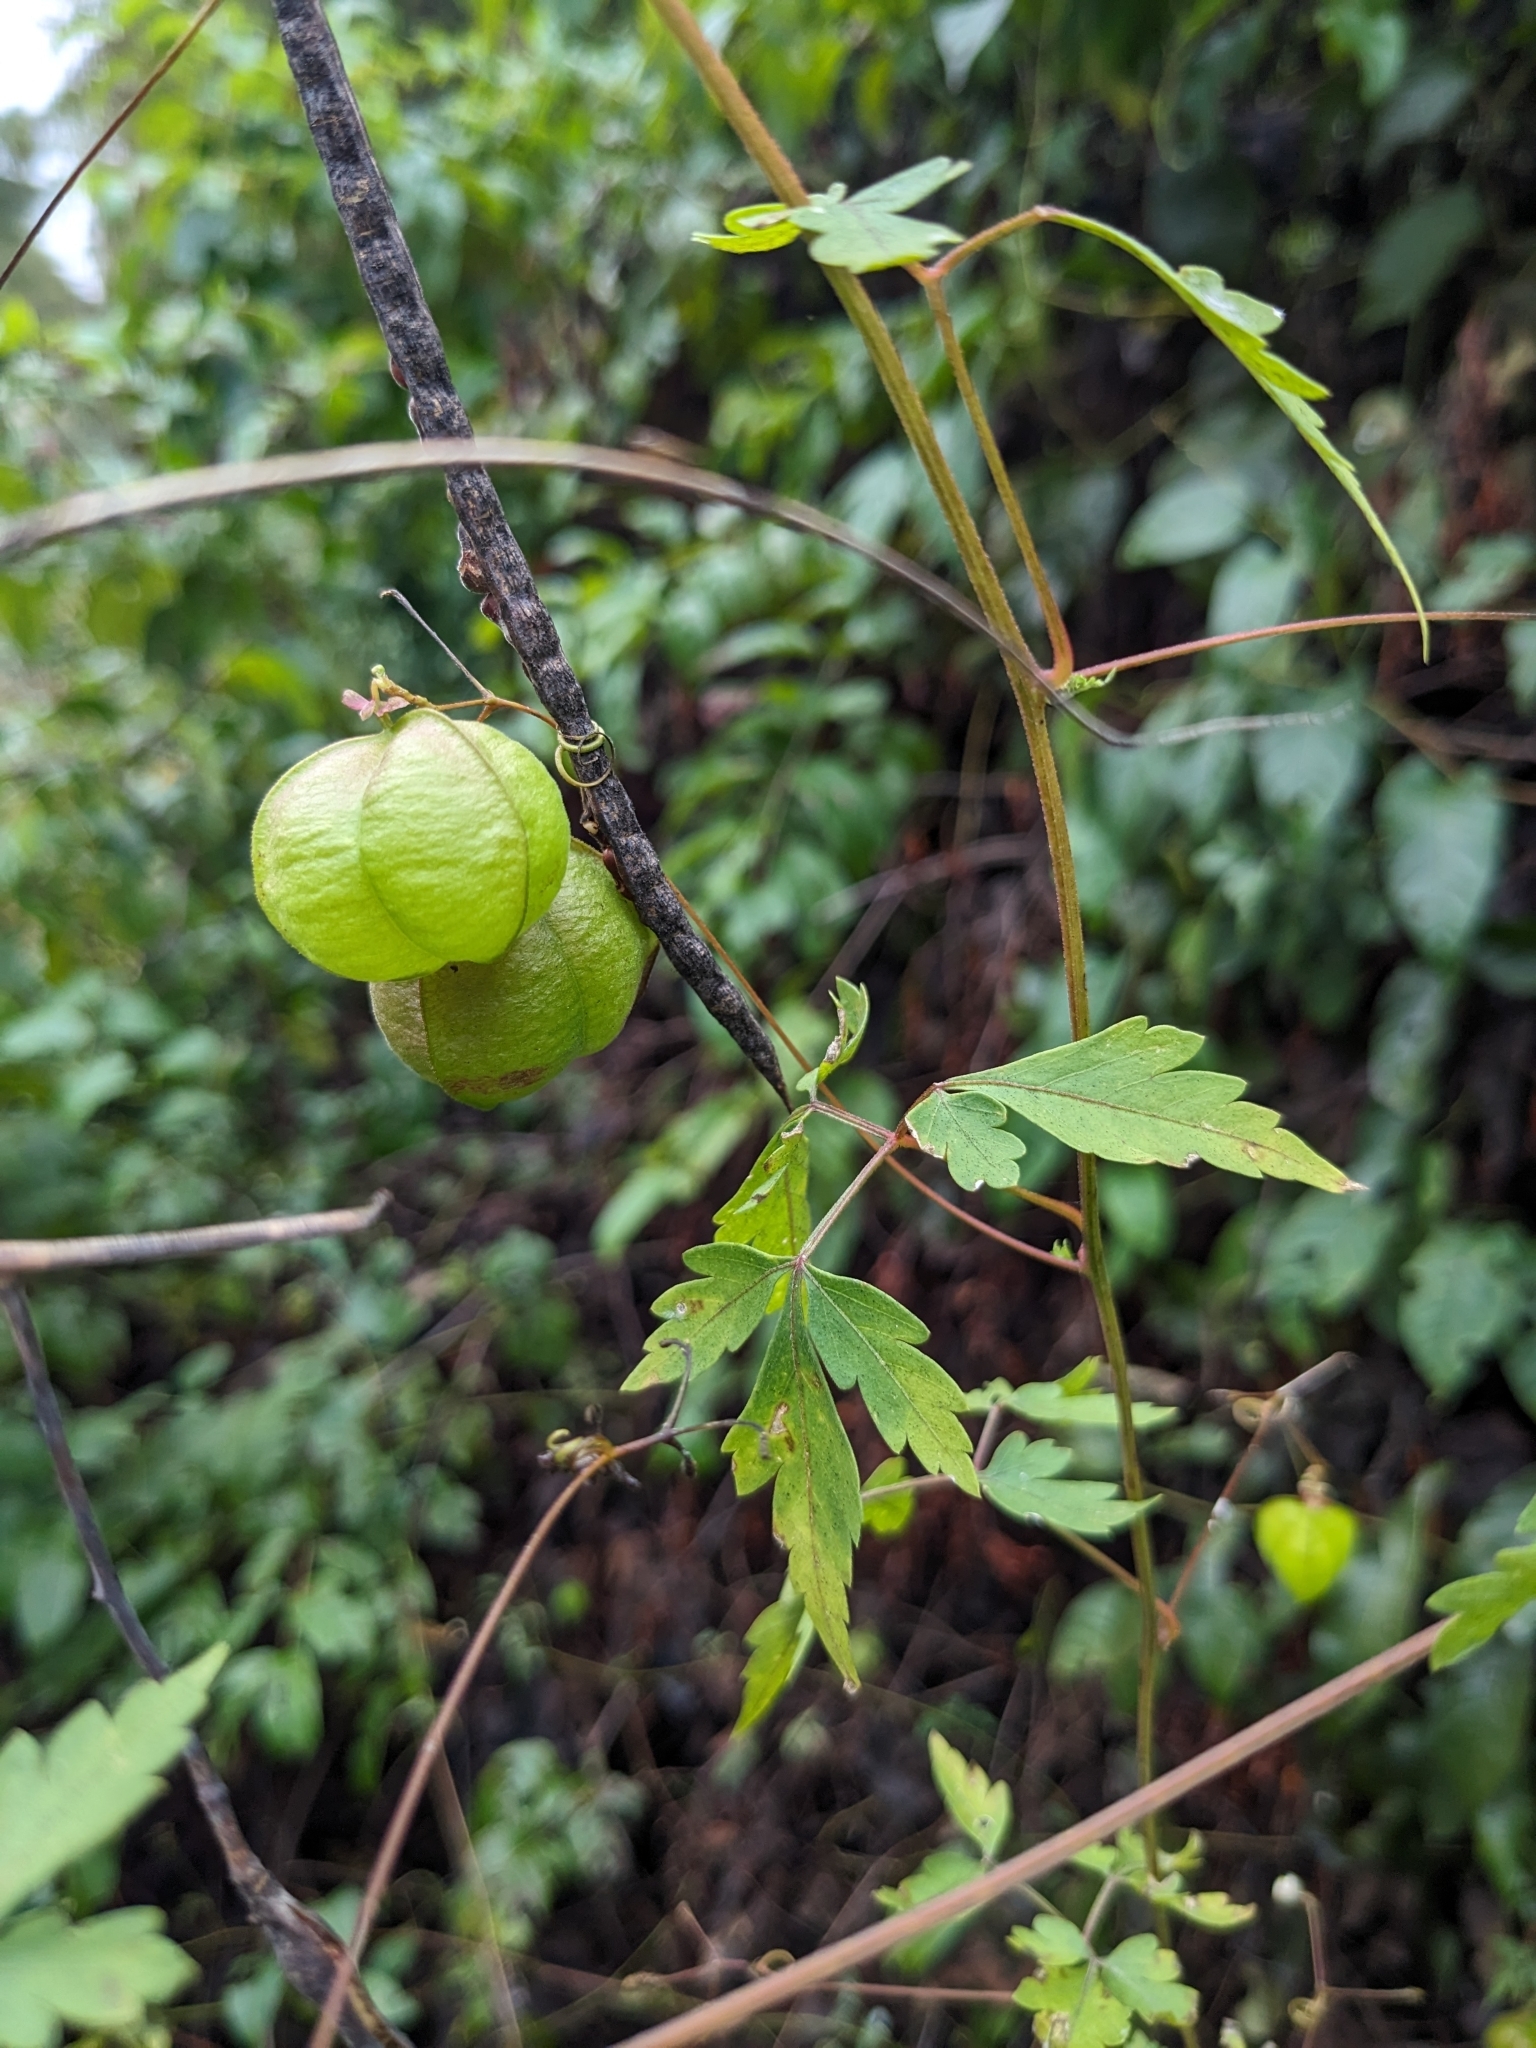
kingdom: Plantae
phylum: Tracheophyta
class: Magnoliopsida
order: Sapindales
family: Sapindaceae
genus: Cardiospermum
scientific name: Cardiospermum halicacabum
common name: Balloon vine
